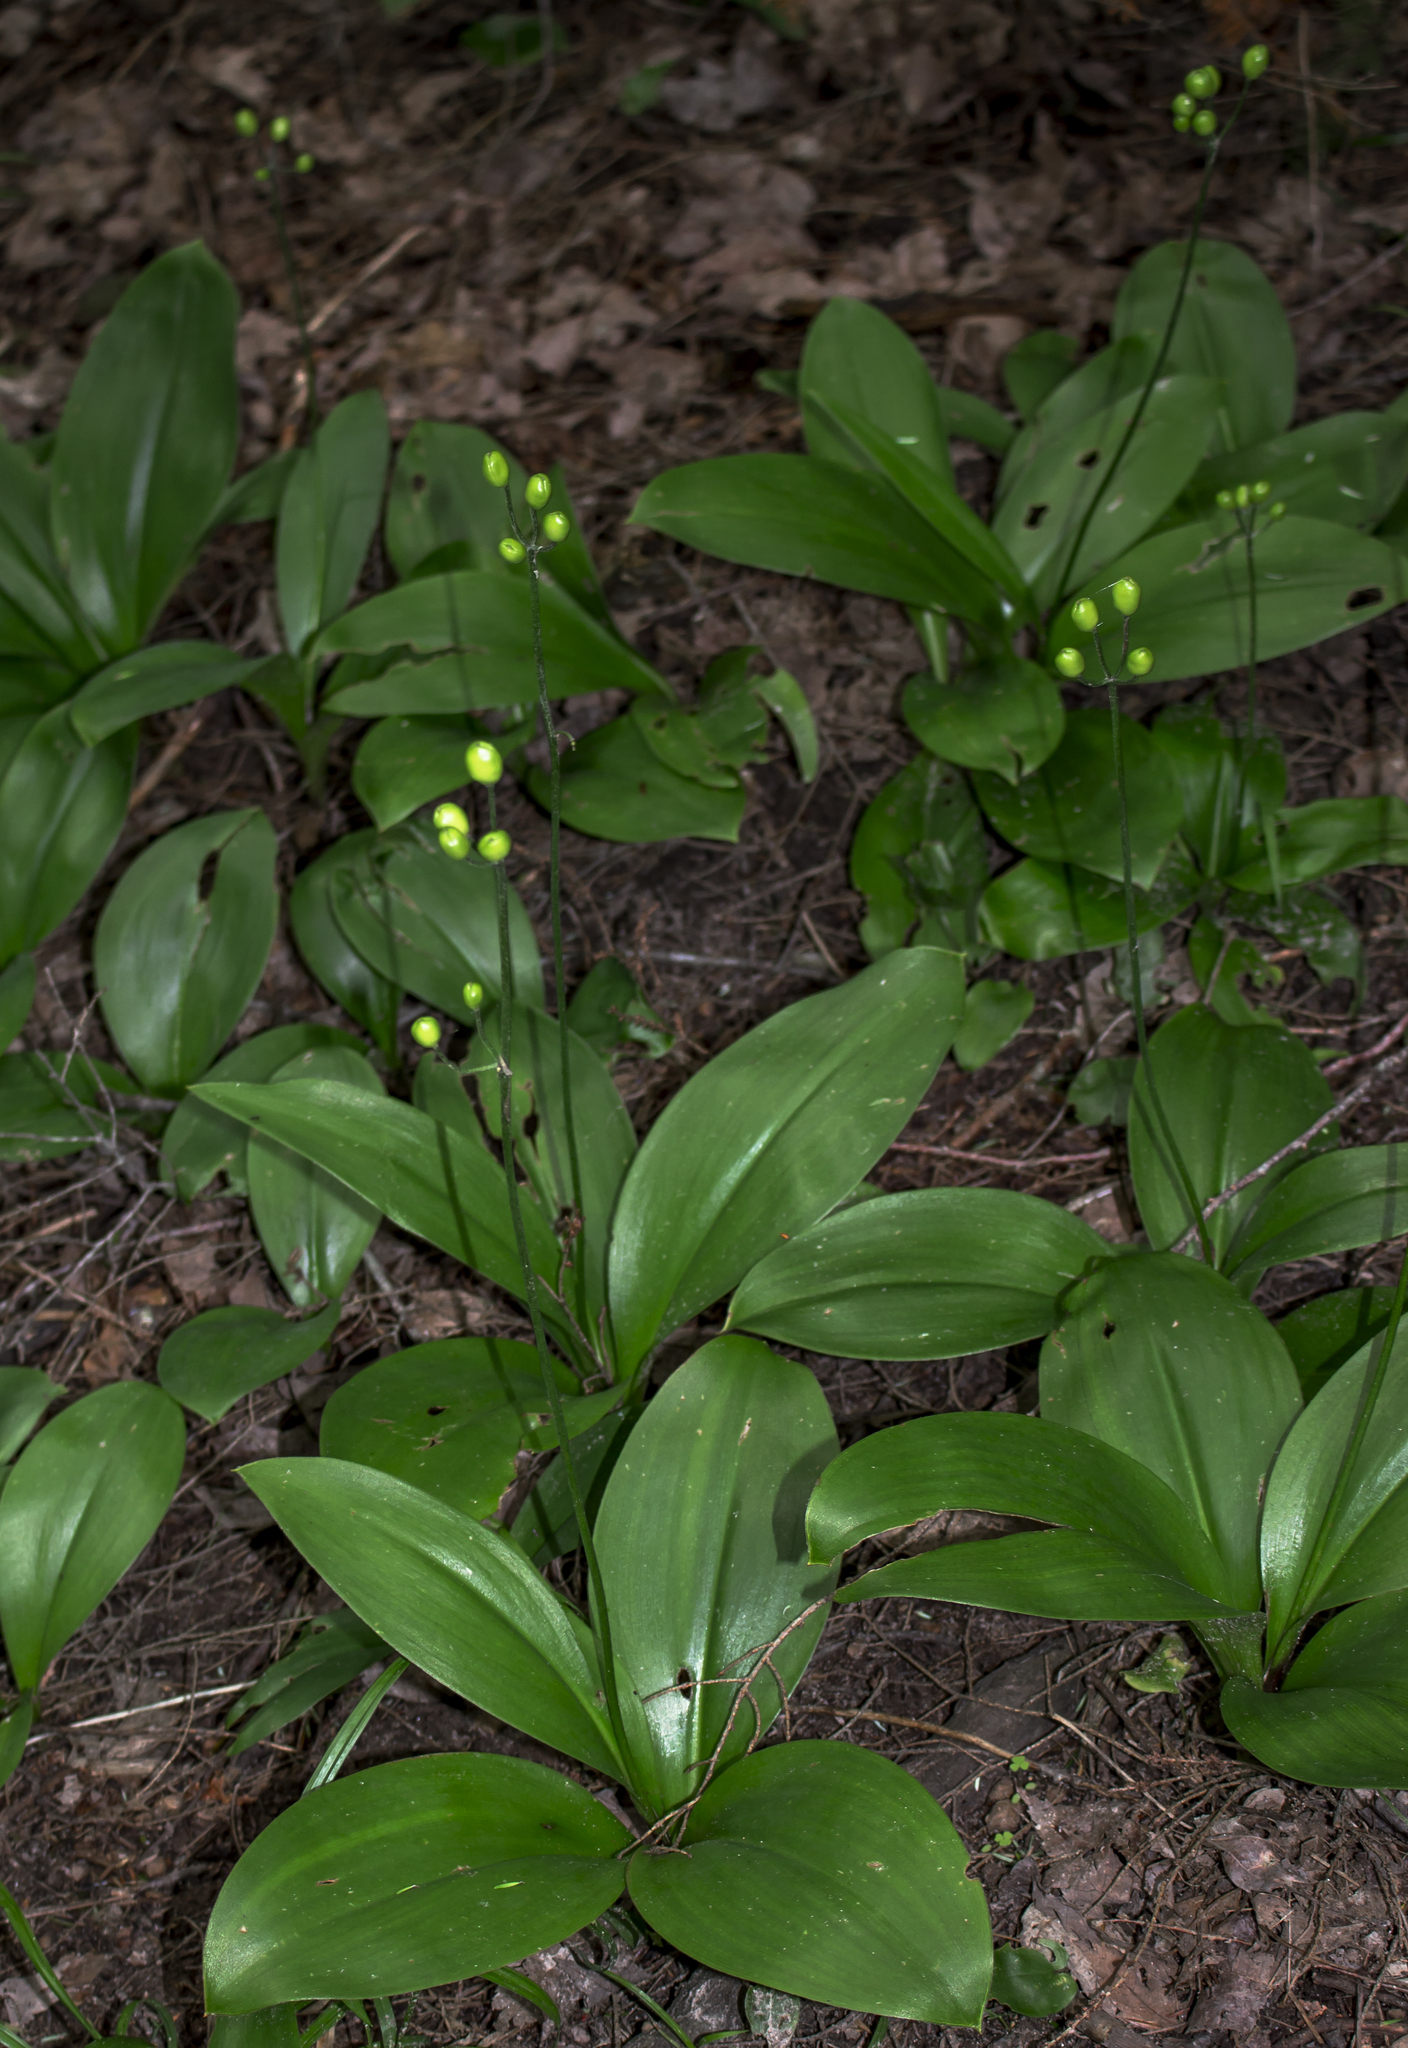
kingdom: Plantae
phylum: Tracheophyta
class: Liliopsida
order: Liliales
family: Liliaceae
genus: Clintonia
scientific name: Clintonia borealis
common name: Yellow clintonia
